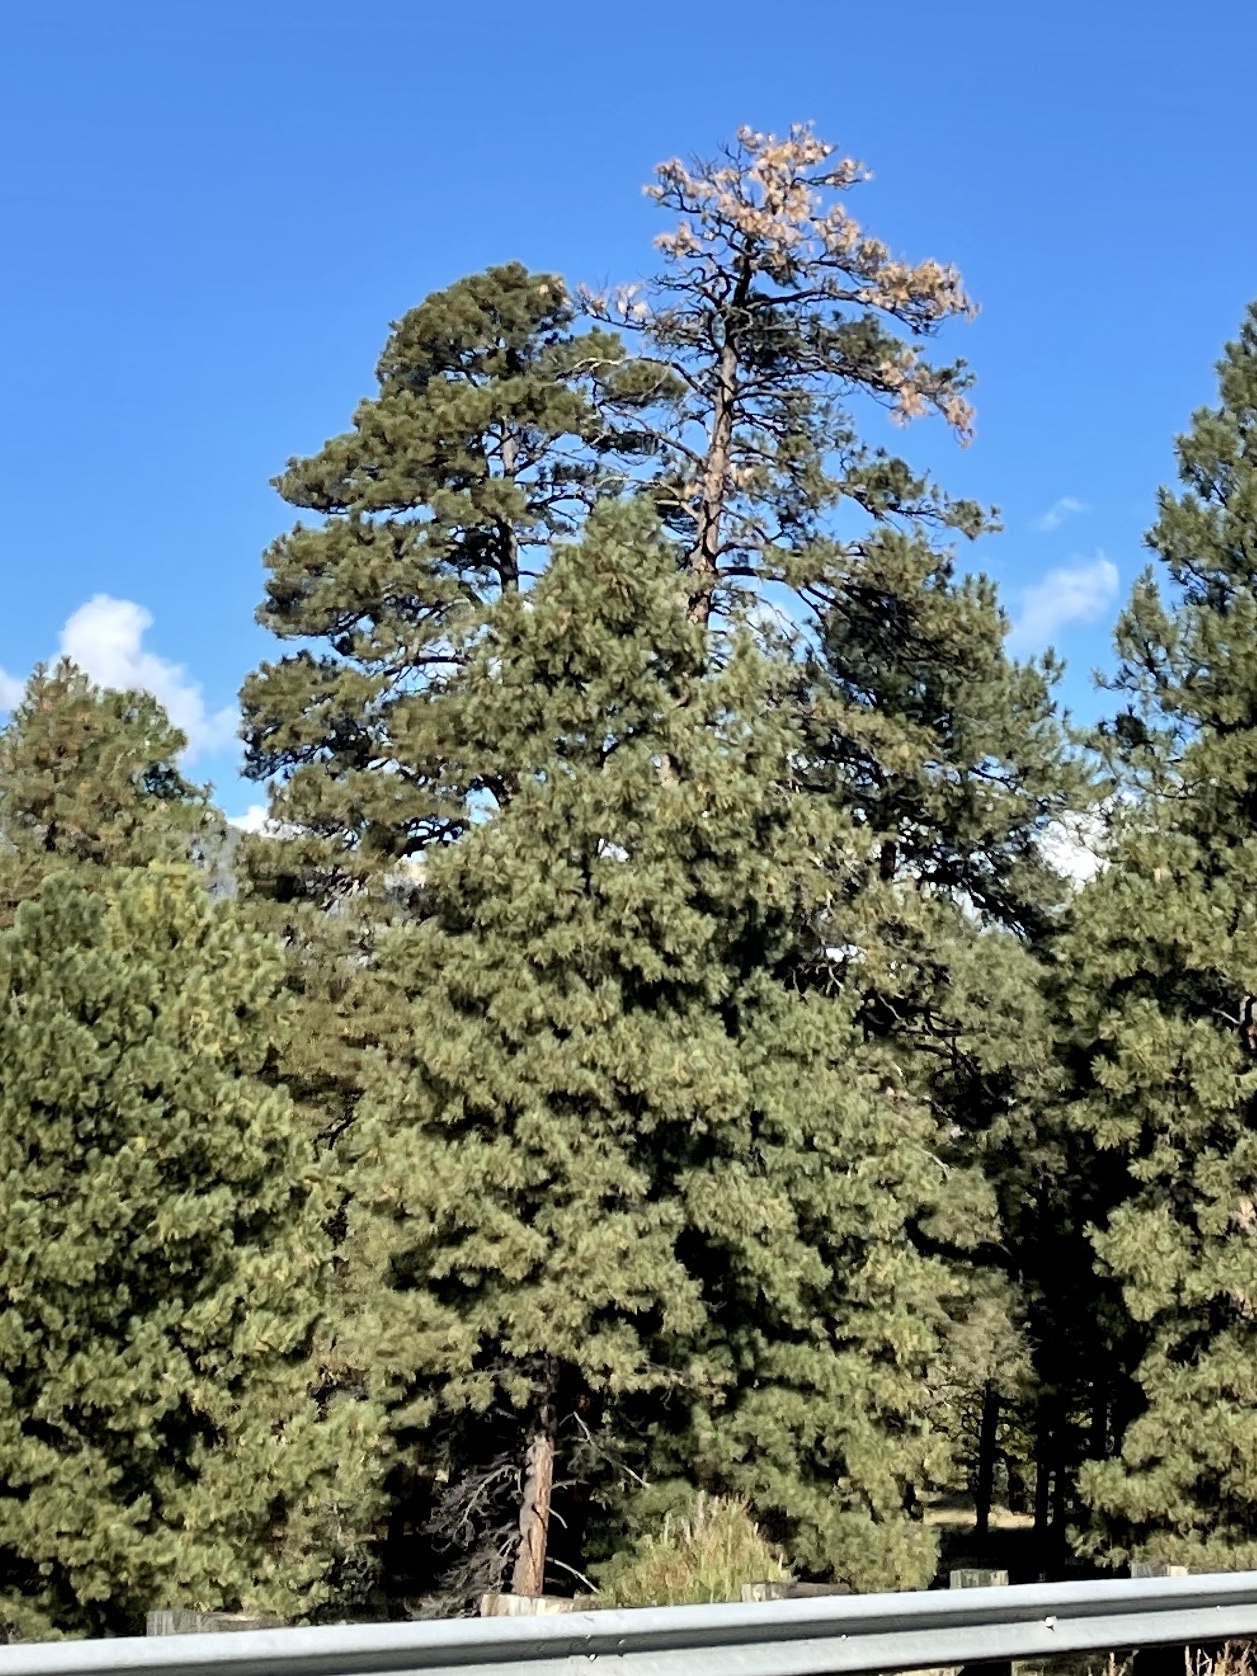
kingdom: Plantae
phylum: Tracheophyta
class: Pinopsida
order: Pinales
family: Pinaceae
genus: Pinus
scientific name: Pinus ponderosa
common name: Western yellow-pine
